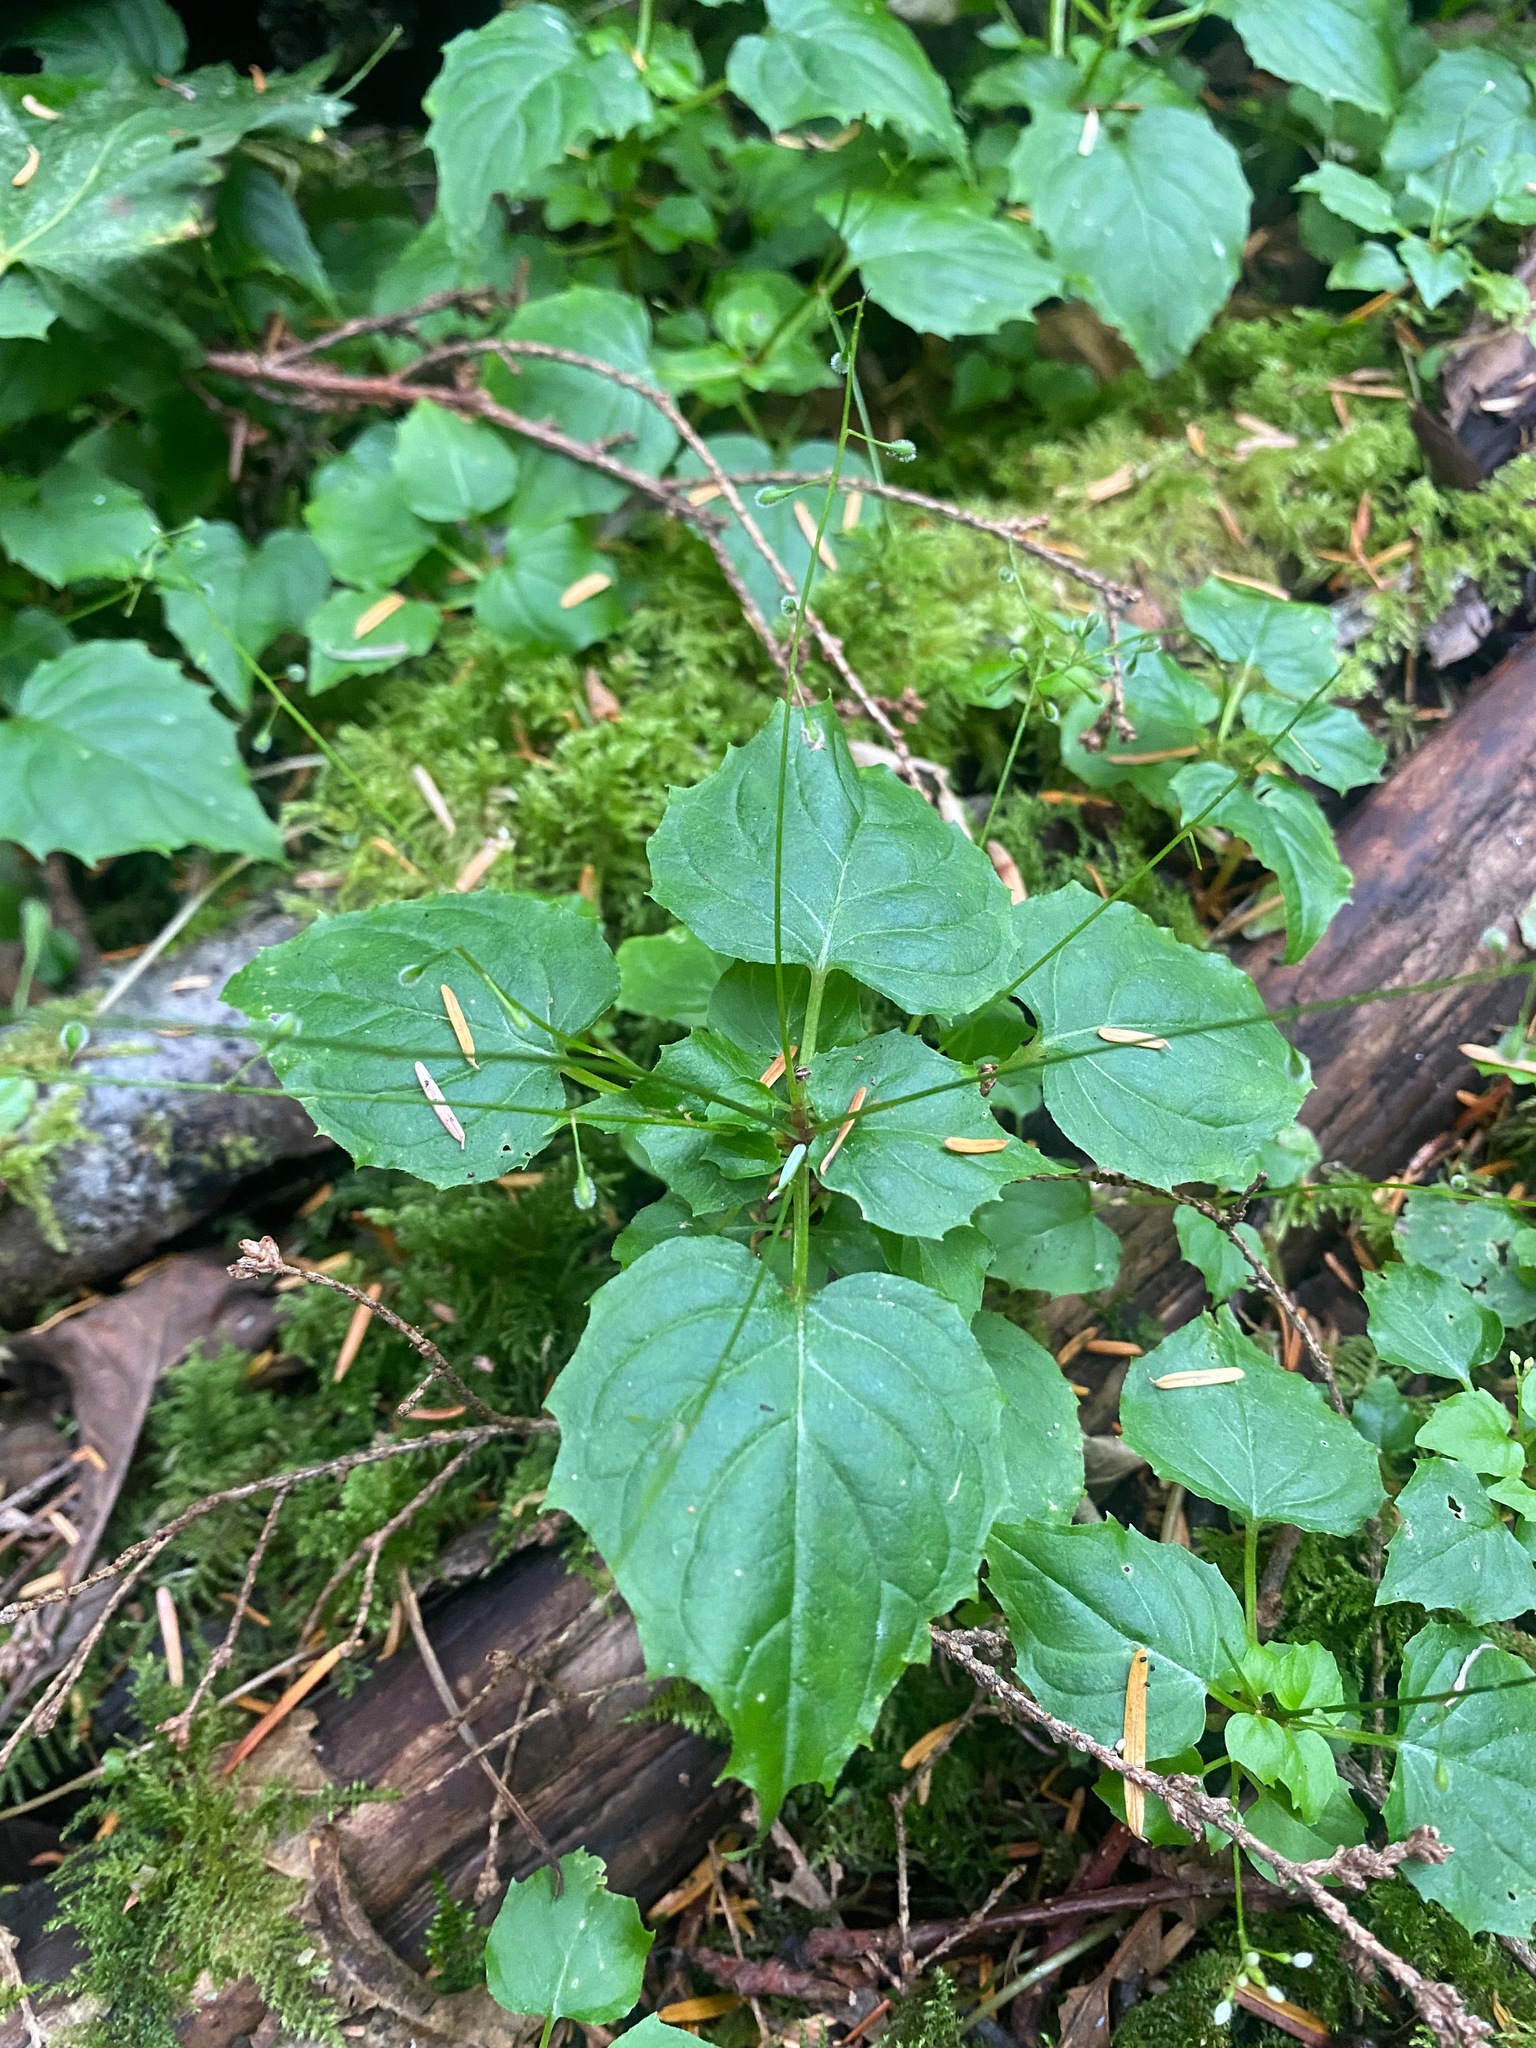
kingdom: Plantae
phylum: Tracheophyta
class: Magnoliopsida
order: Myrtales
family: Onagraceae
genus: Circaea
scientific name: Circaea alpina
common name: Alpine enchanter's-nightshade
